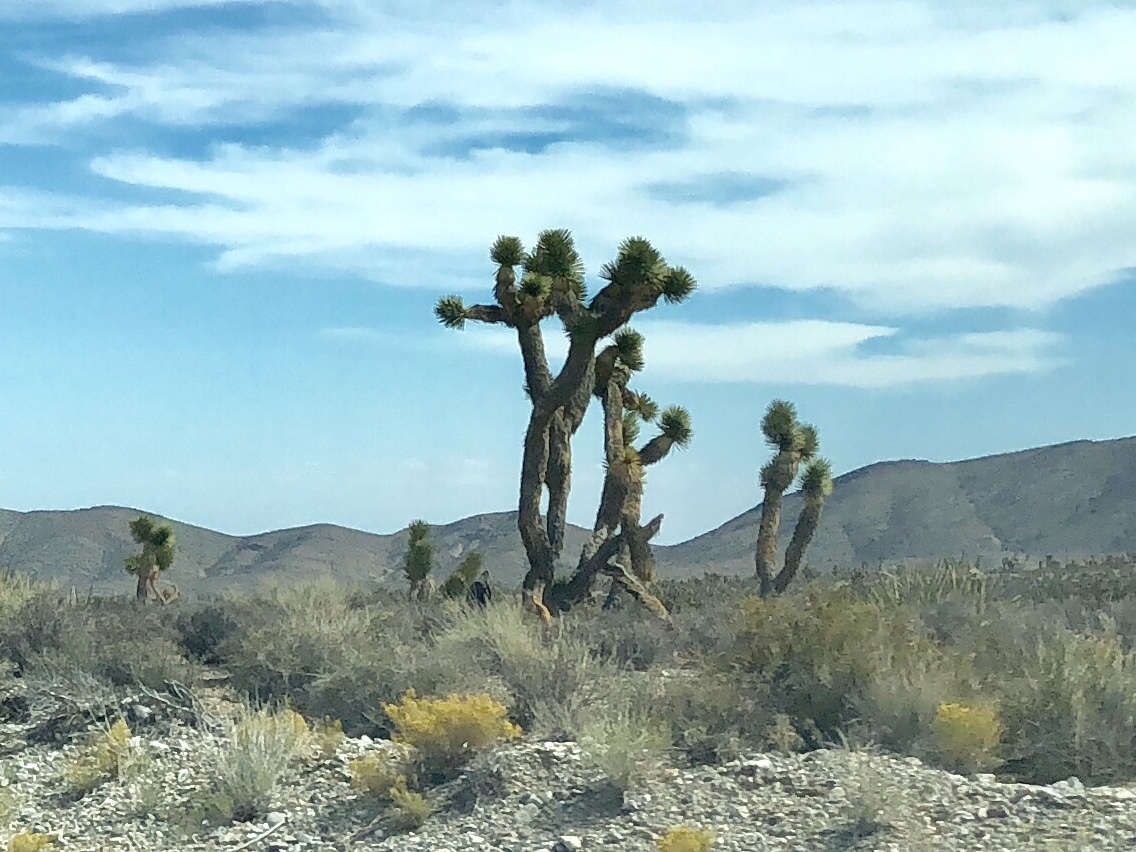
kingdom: Plantae
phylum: Tracheophyta
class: Liliopsida
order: Asparagales
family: Asparagaceae
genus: Yucca
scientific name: Yucca brevifolia
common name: Joshua tree
